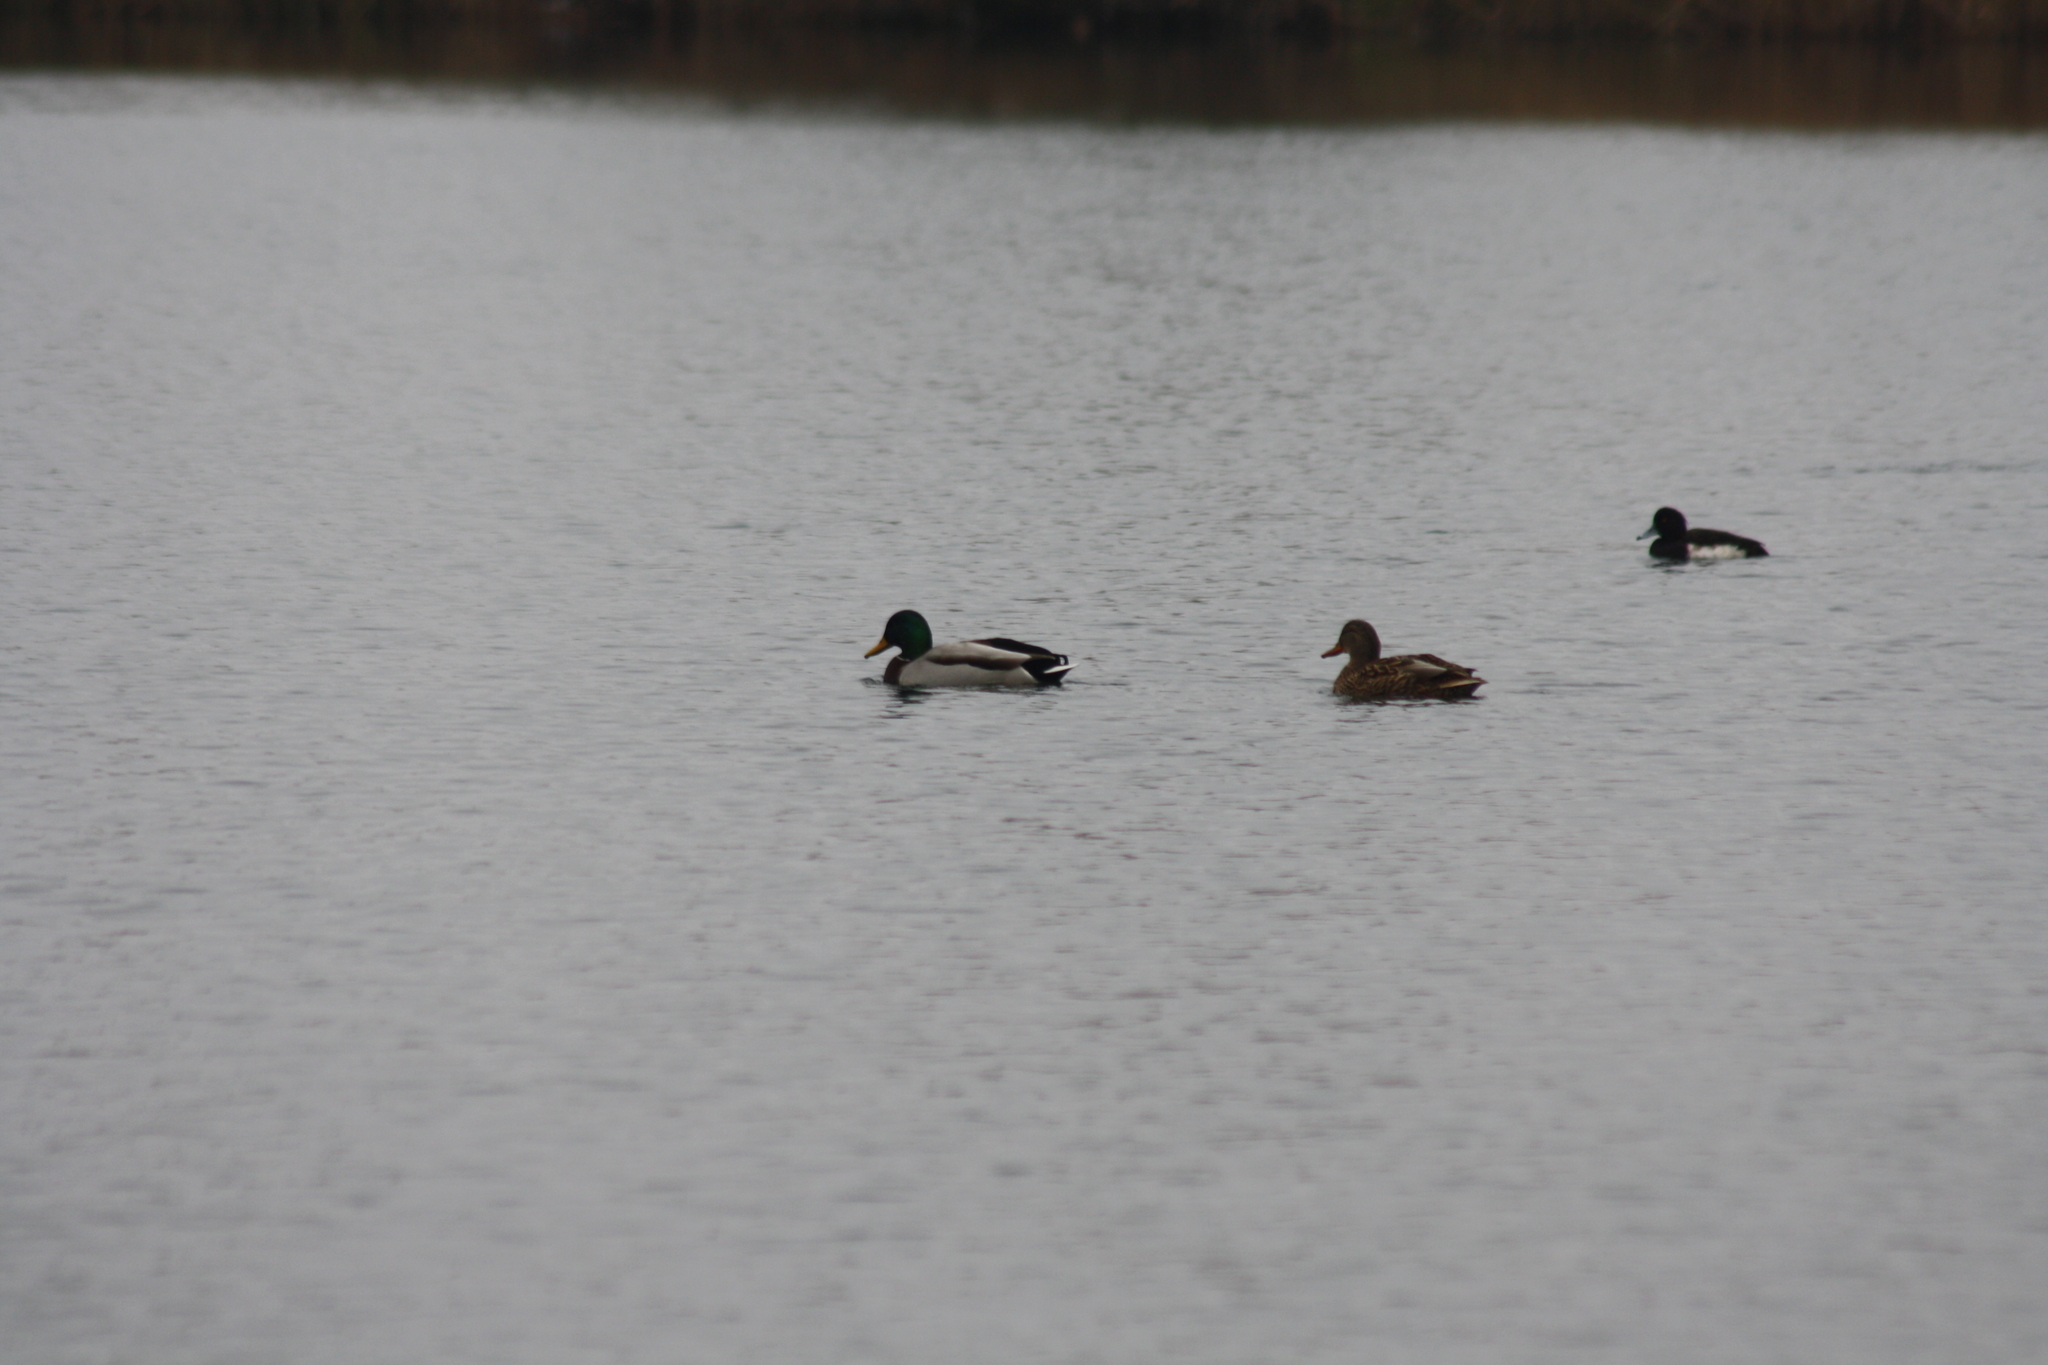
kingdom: Animalia
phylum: Chordata
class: Aves
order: Anseriformes
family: Anatidae
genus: Anas
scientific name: Anas platyrhynchos
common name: Mallard
